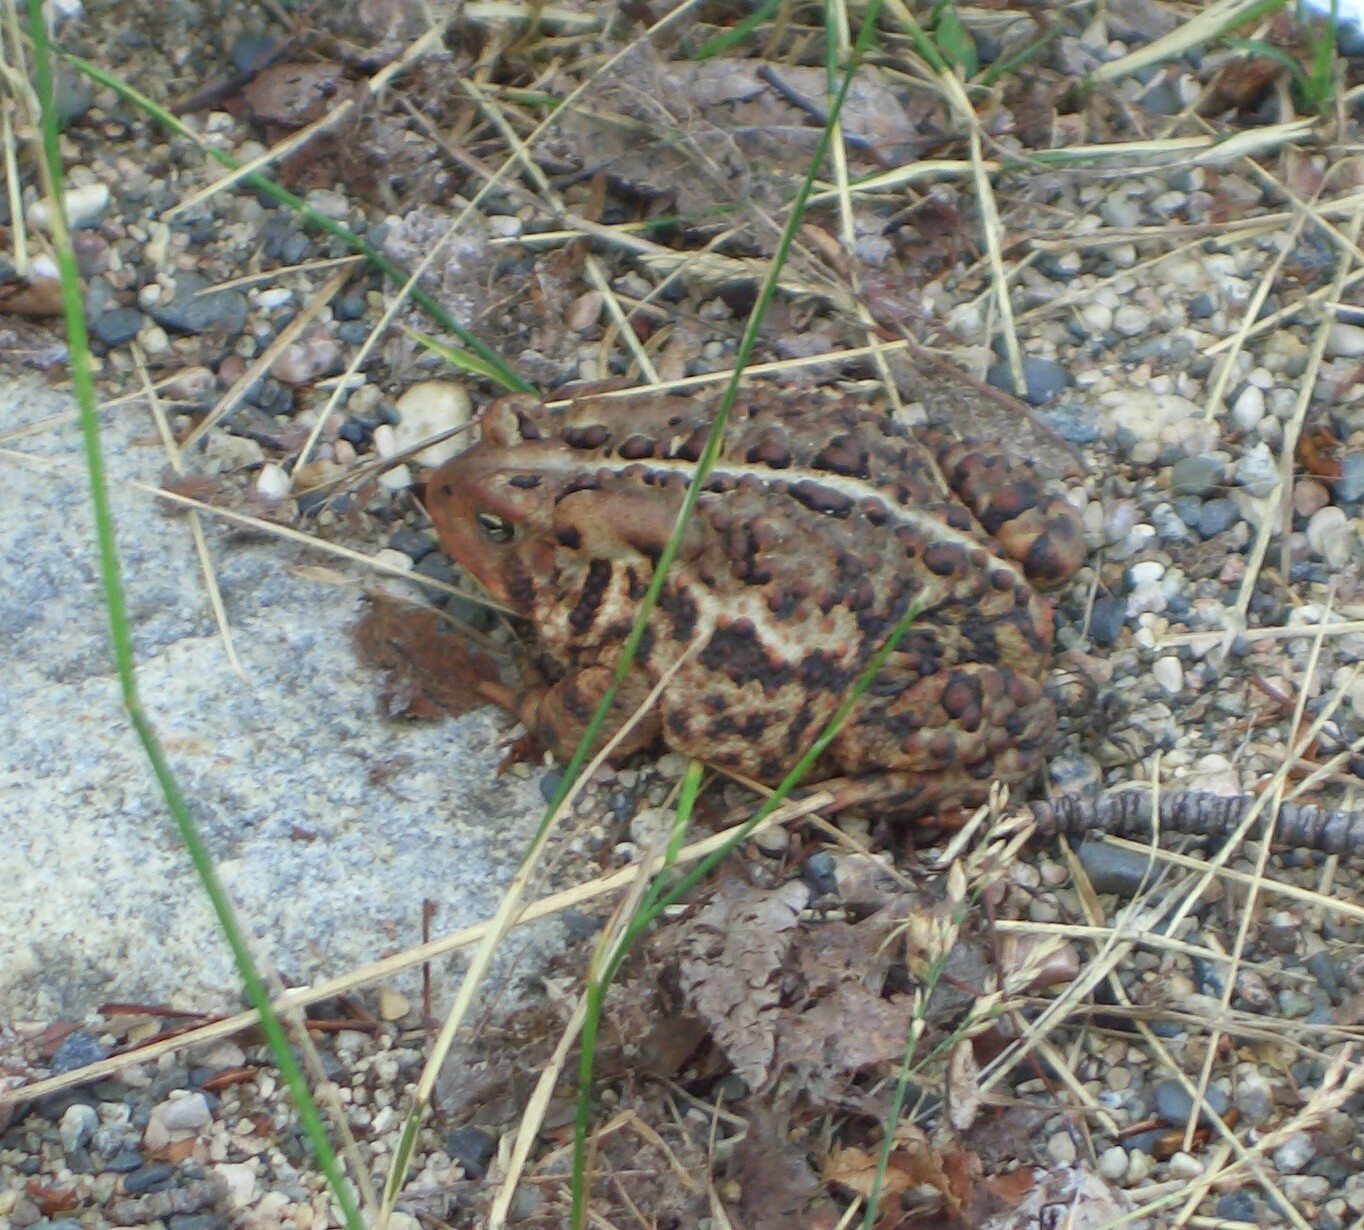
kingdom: Animalia
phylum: Chordata
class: Amphibia
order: Anura
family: Bufonidae
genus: Anaxyrus
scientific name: Anaxyrus americanus
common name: American toad
